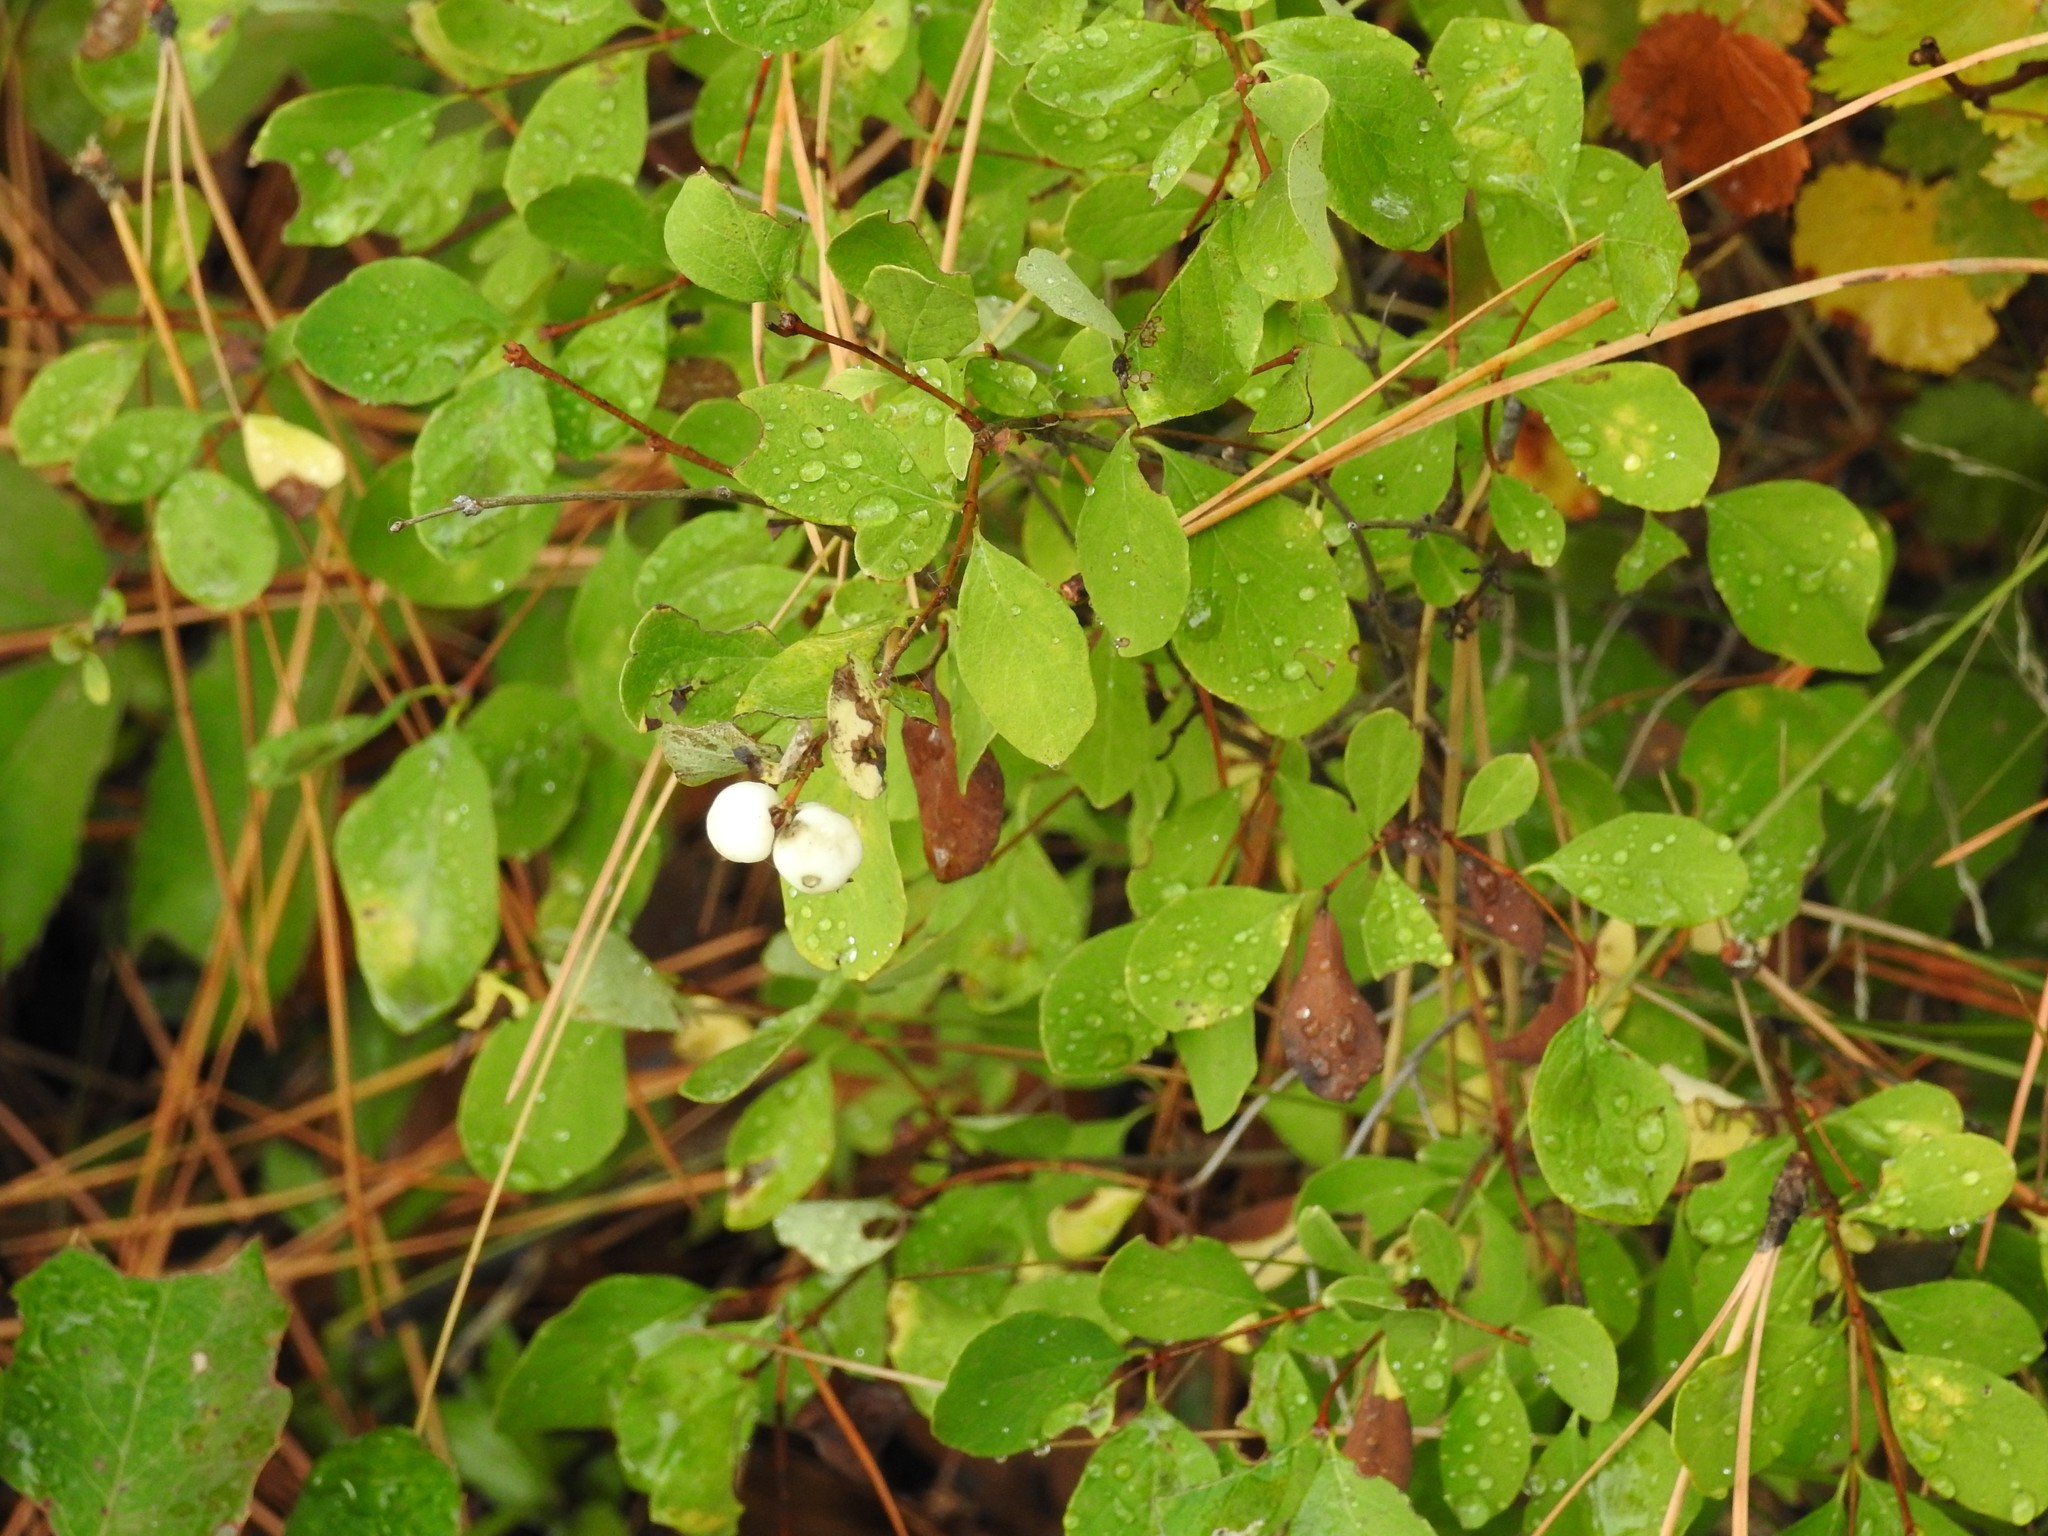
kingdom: Plantae
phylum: Tracheophyta
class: Magnoliopsida
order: Dipsacales
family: Caprifoliaceae
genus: Symphoricarpos
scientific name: Symphoricarpos albus
